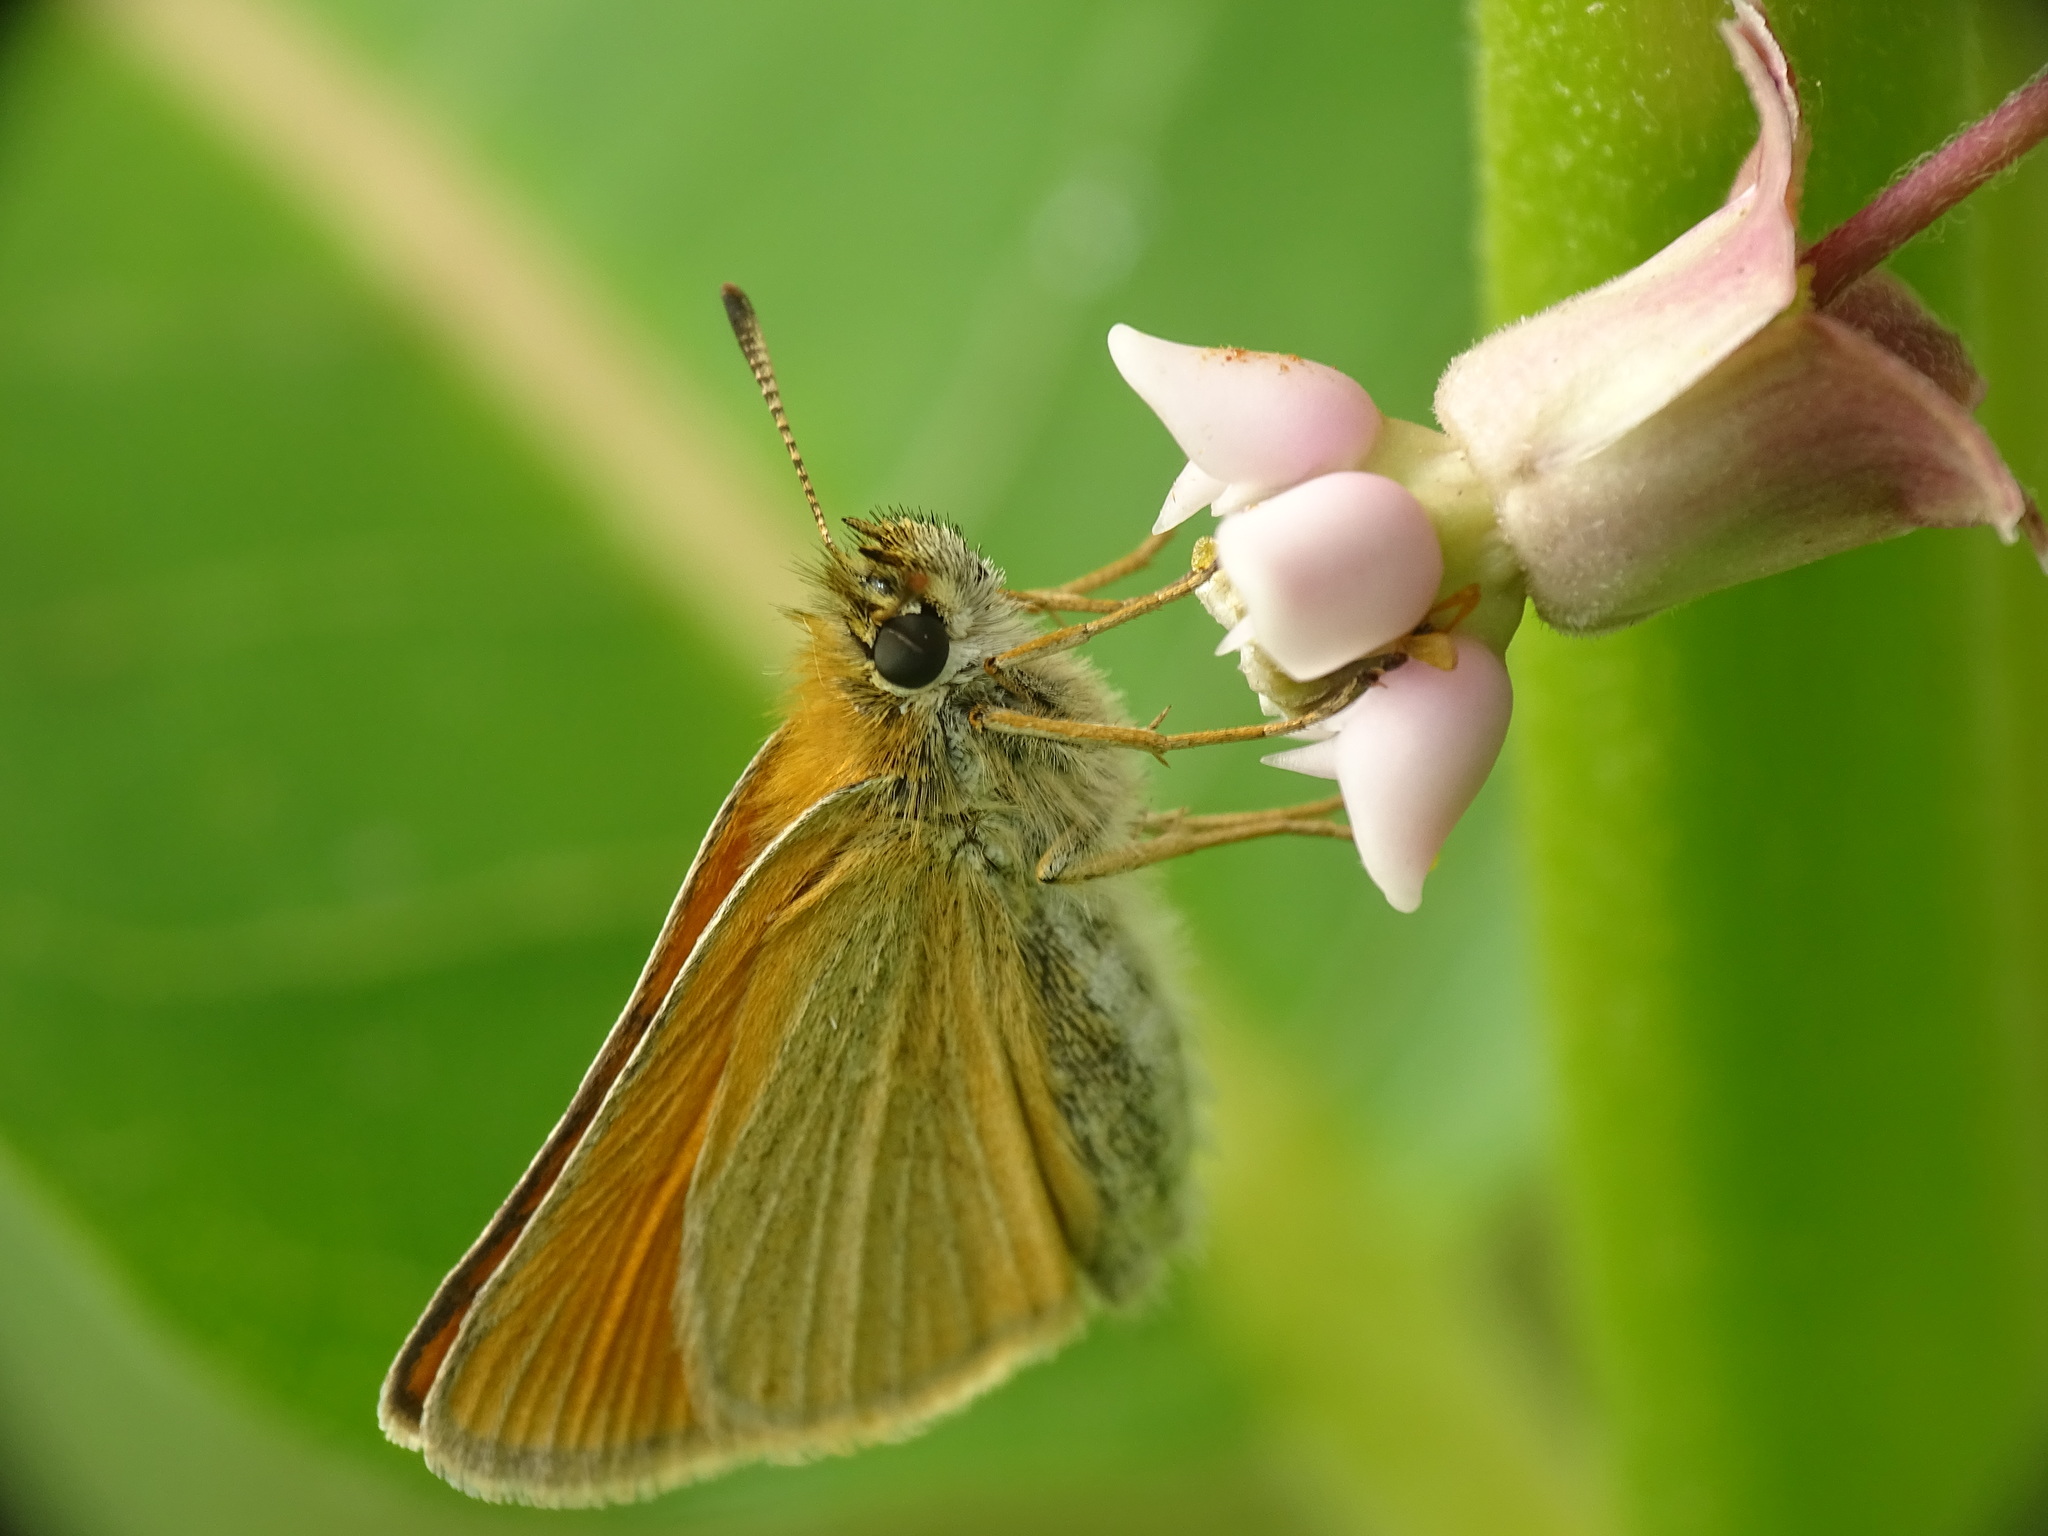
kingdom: Animalia
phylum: Arthropoda
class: Insecta
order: Lepidoptera
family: Hesperiidae
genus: Thymelicus
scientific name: Thymelicus lineola
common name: Essex skipper
